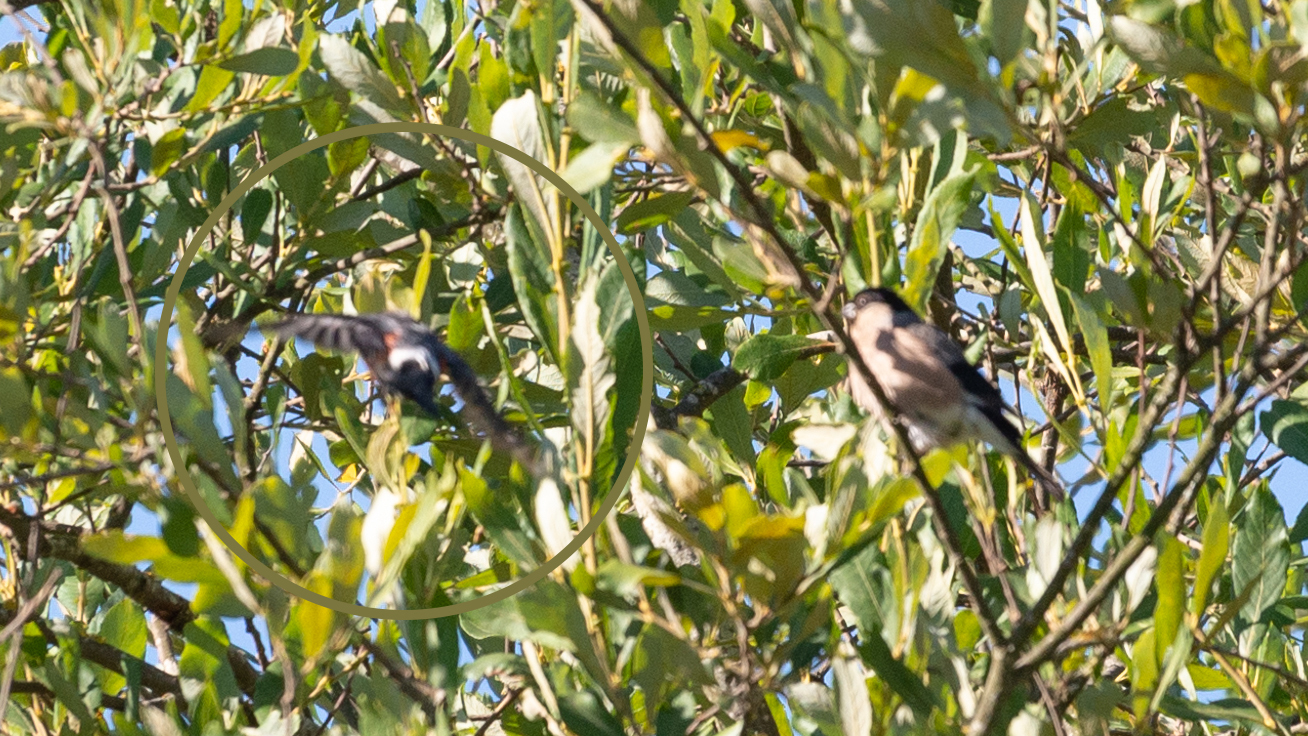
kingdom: Animalia
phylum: Chordata
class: Aves
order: Passeriformes
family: Fringillidae
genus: Pyrrhula
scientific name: Pyrrhula pyrrhula
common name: Eurasian bullfinch
